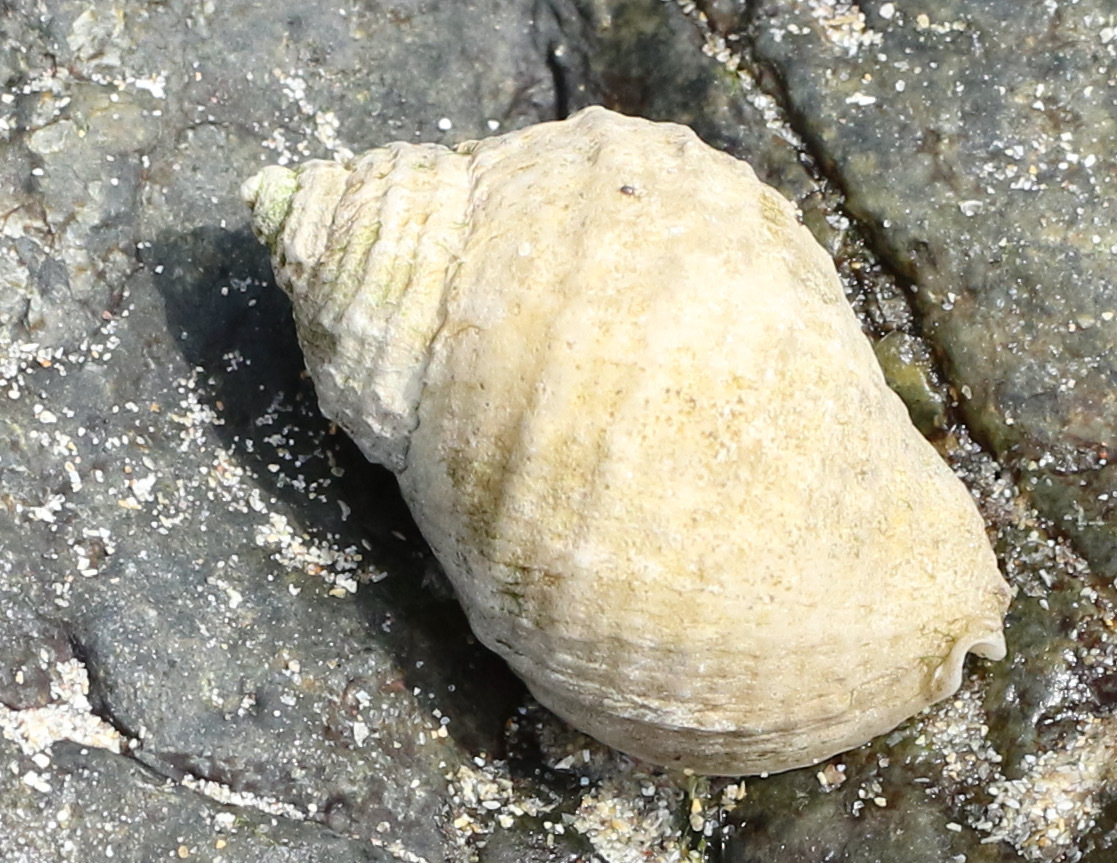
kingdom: Animalia
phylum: Mollusca
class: Gastropoda
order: Neogastropoda
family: Muricidae
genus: Nucella
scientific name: Nucella lapillus
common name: Dog whelk
